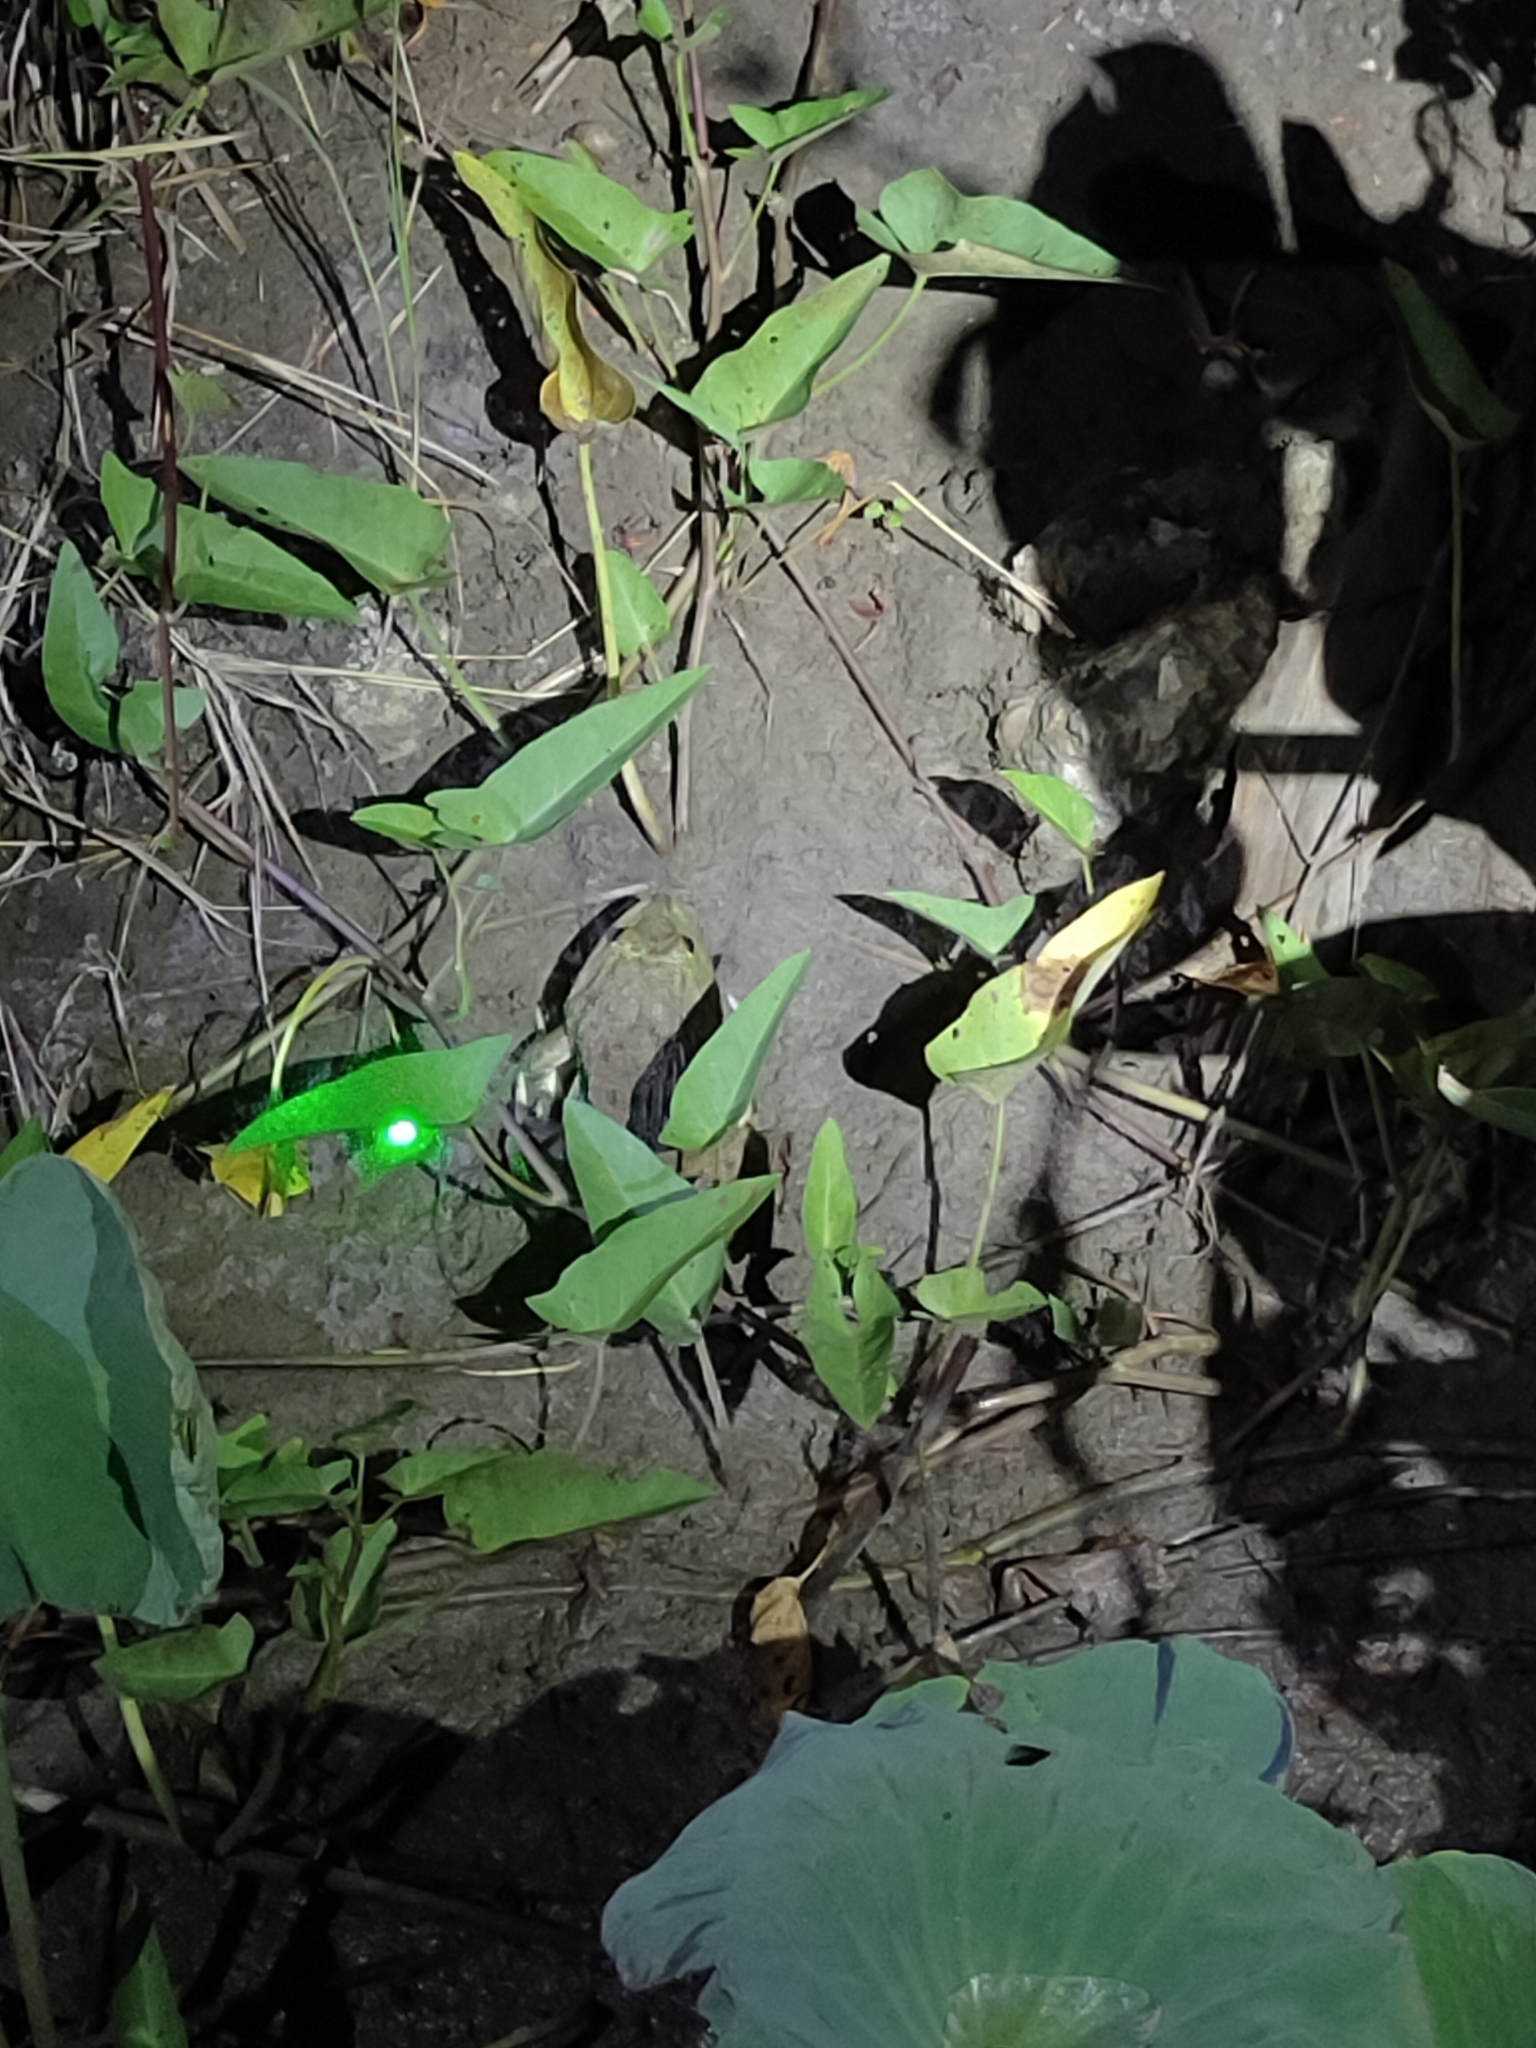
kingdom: Animalia
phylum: Chordata
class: Amphibia
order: Anura
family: Dicroglossidae
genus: Hoplobatrachus
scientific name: Hoplobatrachus rugulosus
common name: Chinese edible frog
